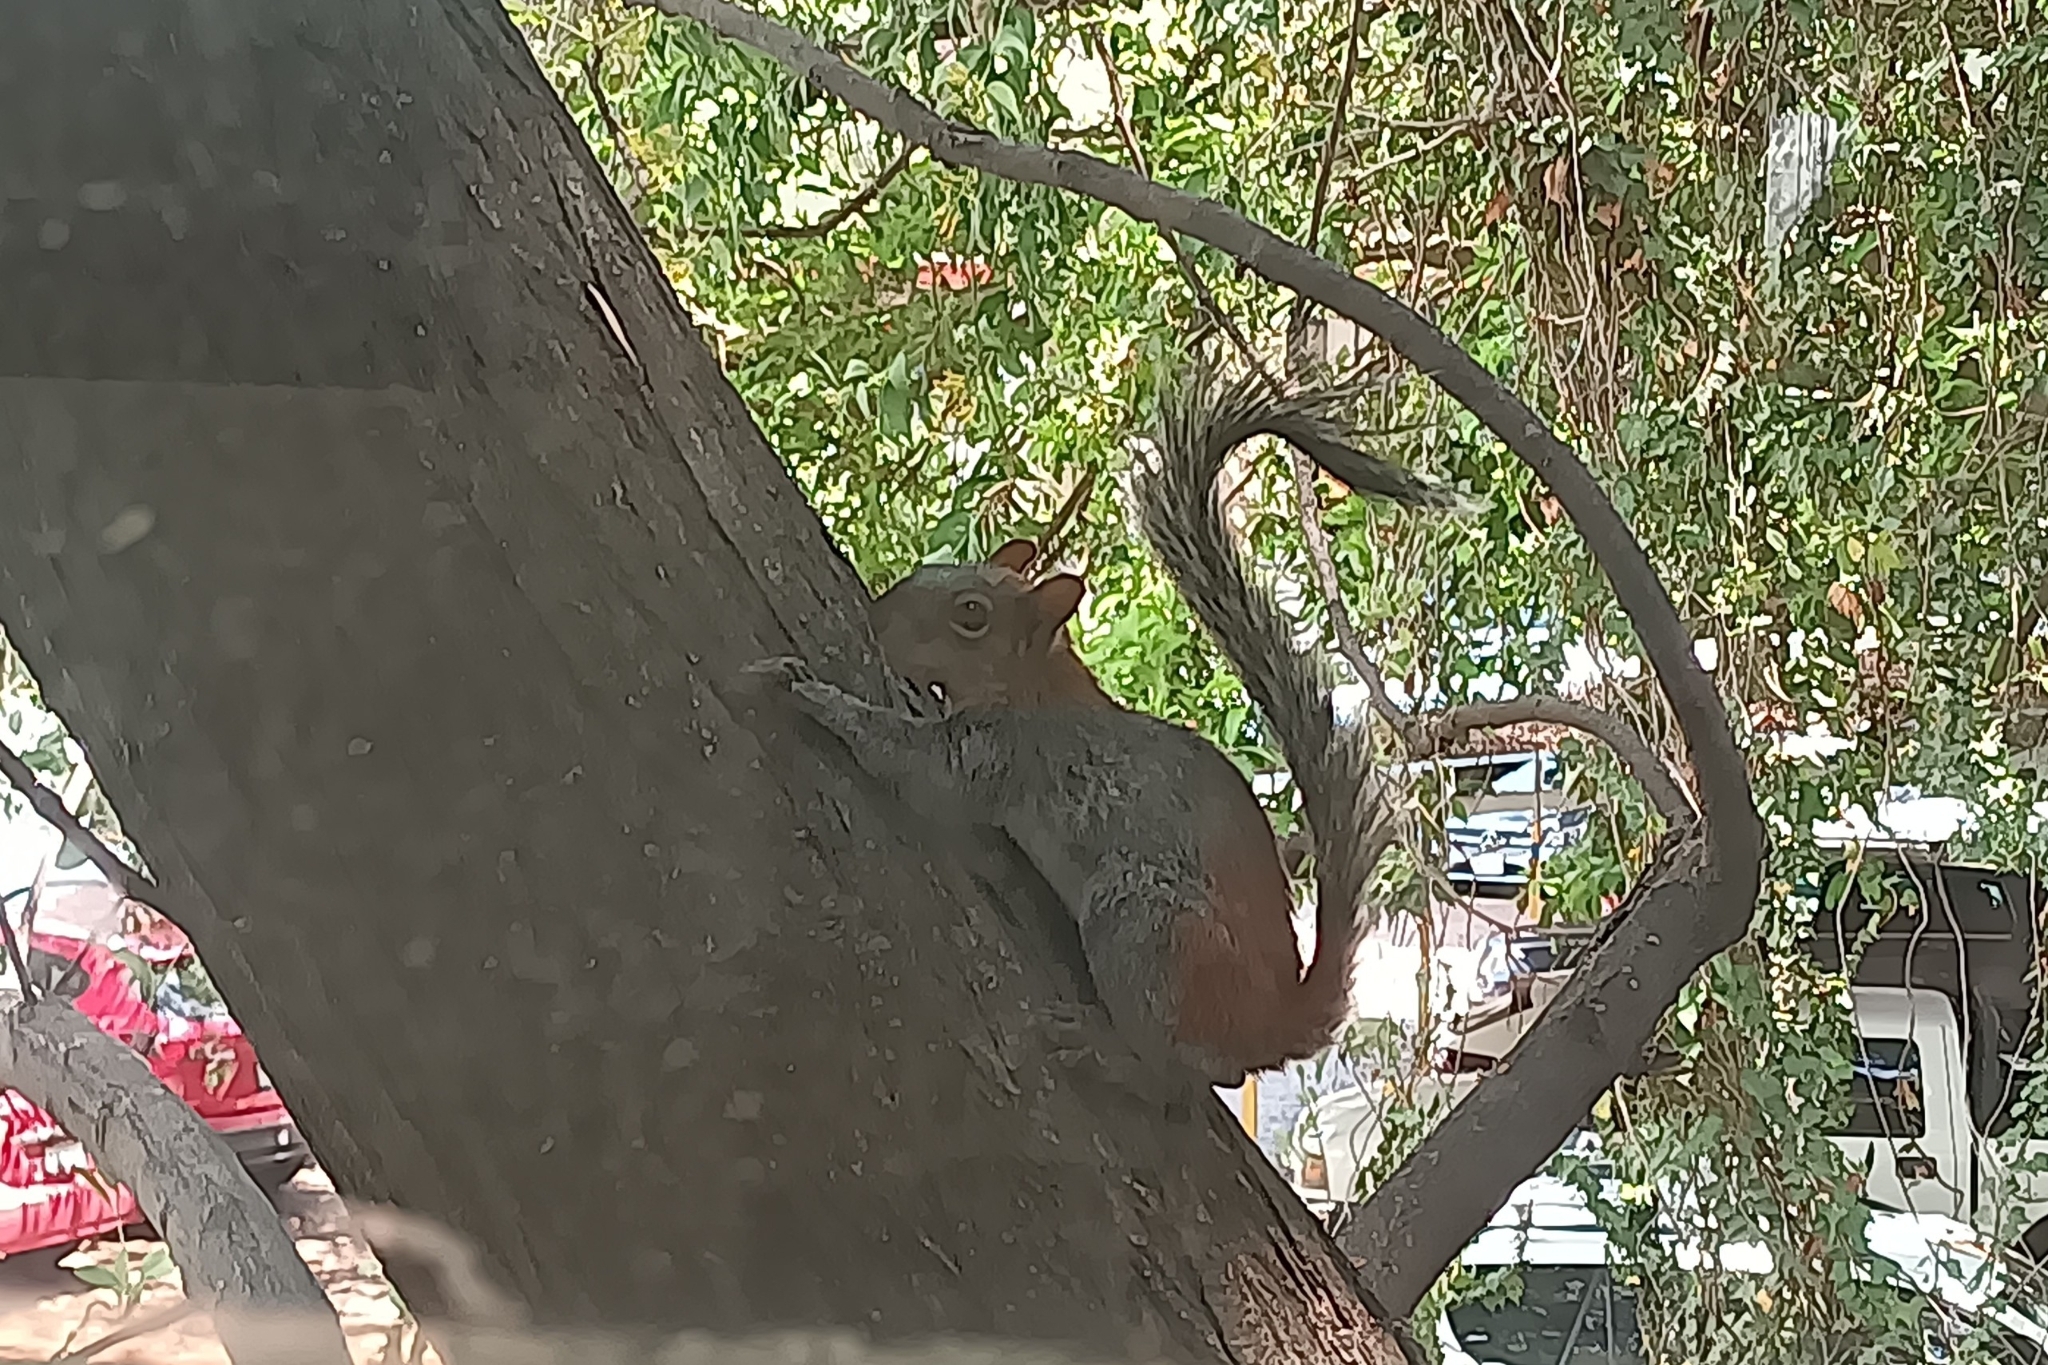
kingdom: Animalia
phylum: Chordata
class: Mammalia
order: Rodentia
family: Sciuridae
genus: Sciurus
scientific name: Sciurus aureogaster
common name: Red-bellied squirrel
